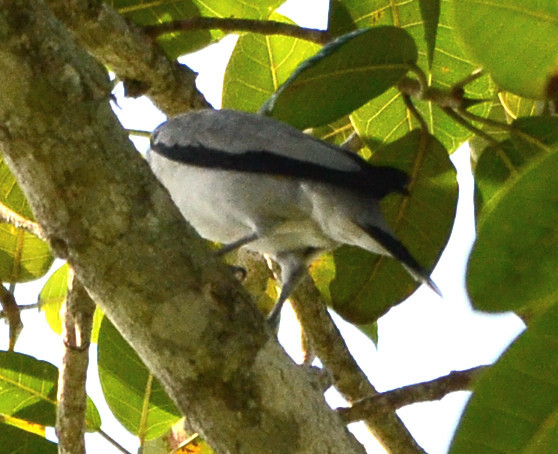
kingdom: Animalia
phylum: Chordata
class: Aves
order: Passeriformes
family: Cotingidae
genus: Tityra
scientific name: Tityra semifasciata
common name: Masked tityra
